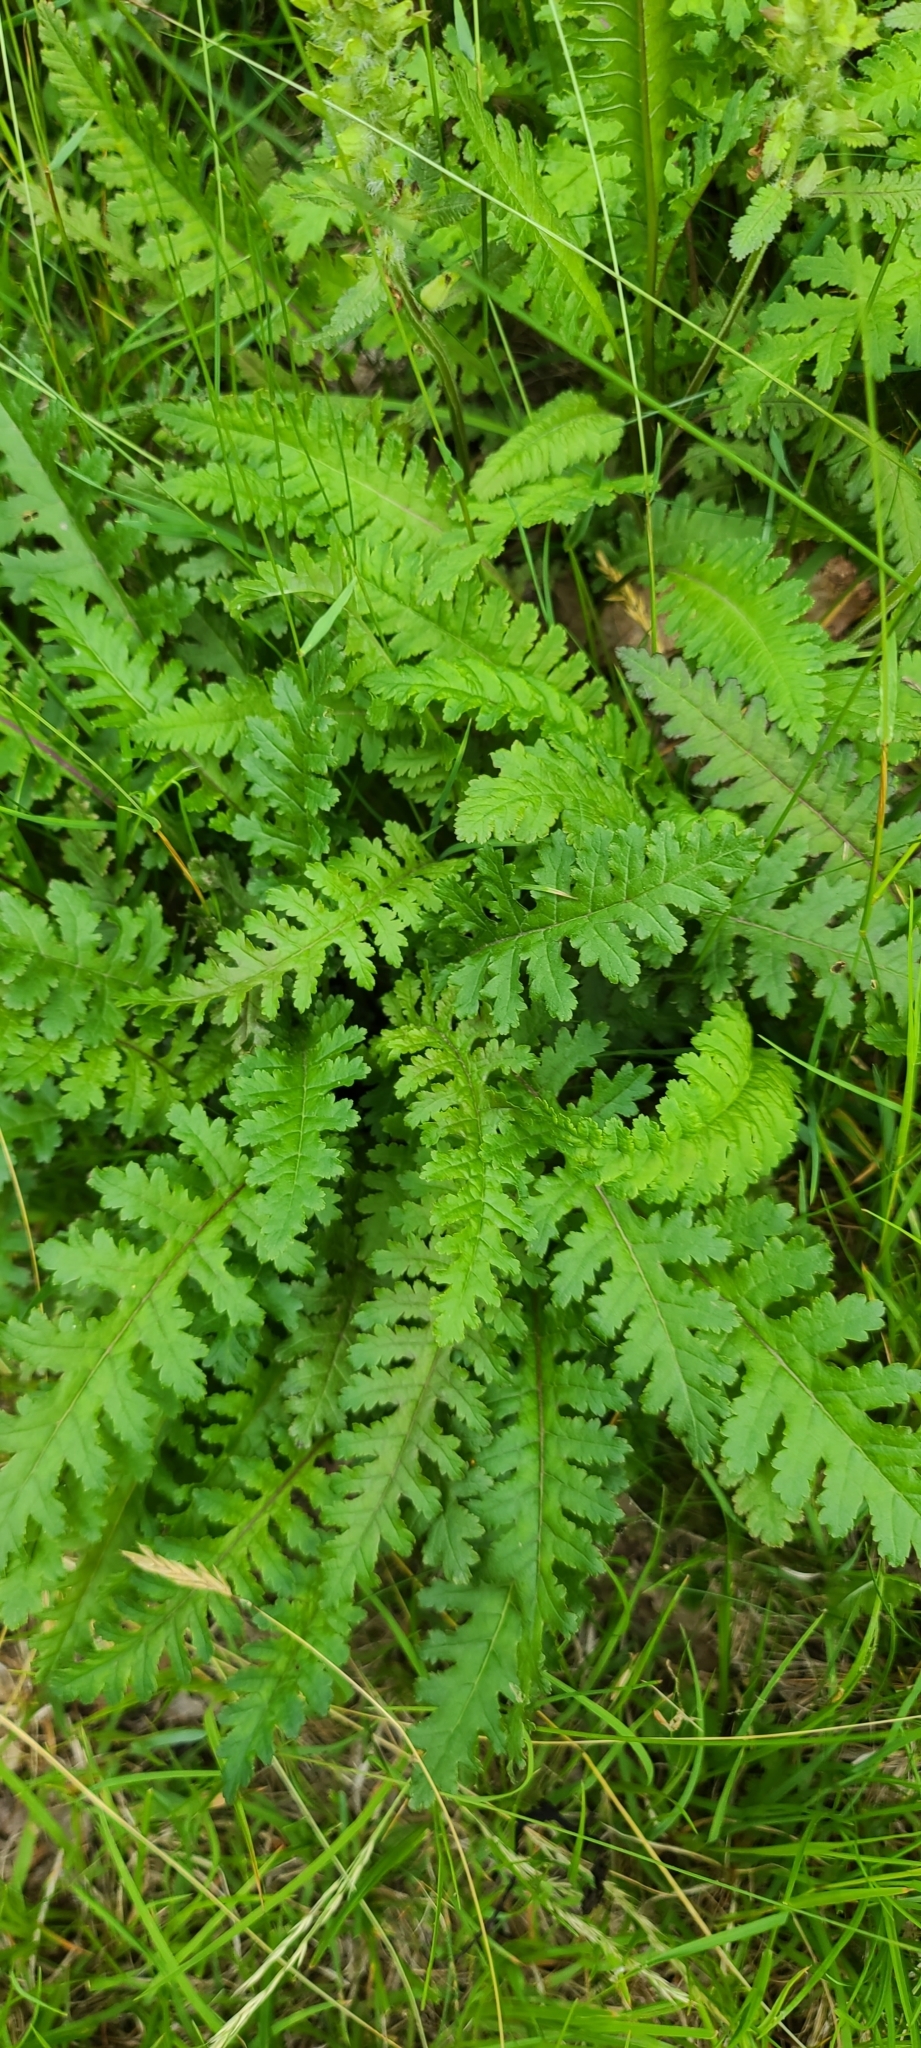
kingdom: Plantae
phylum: Tracheophyta
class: Magnoliopsida
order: Lamiales
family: Orobanchaceae
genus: Pedicularis
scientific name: Pedicularis canadensis
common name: Early lousewort
